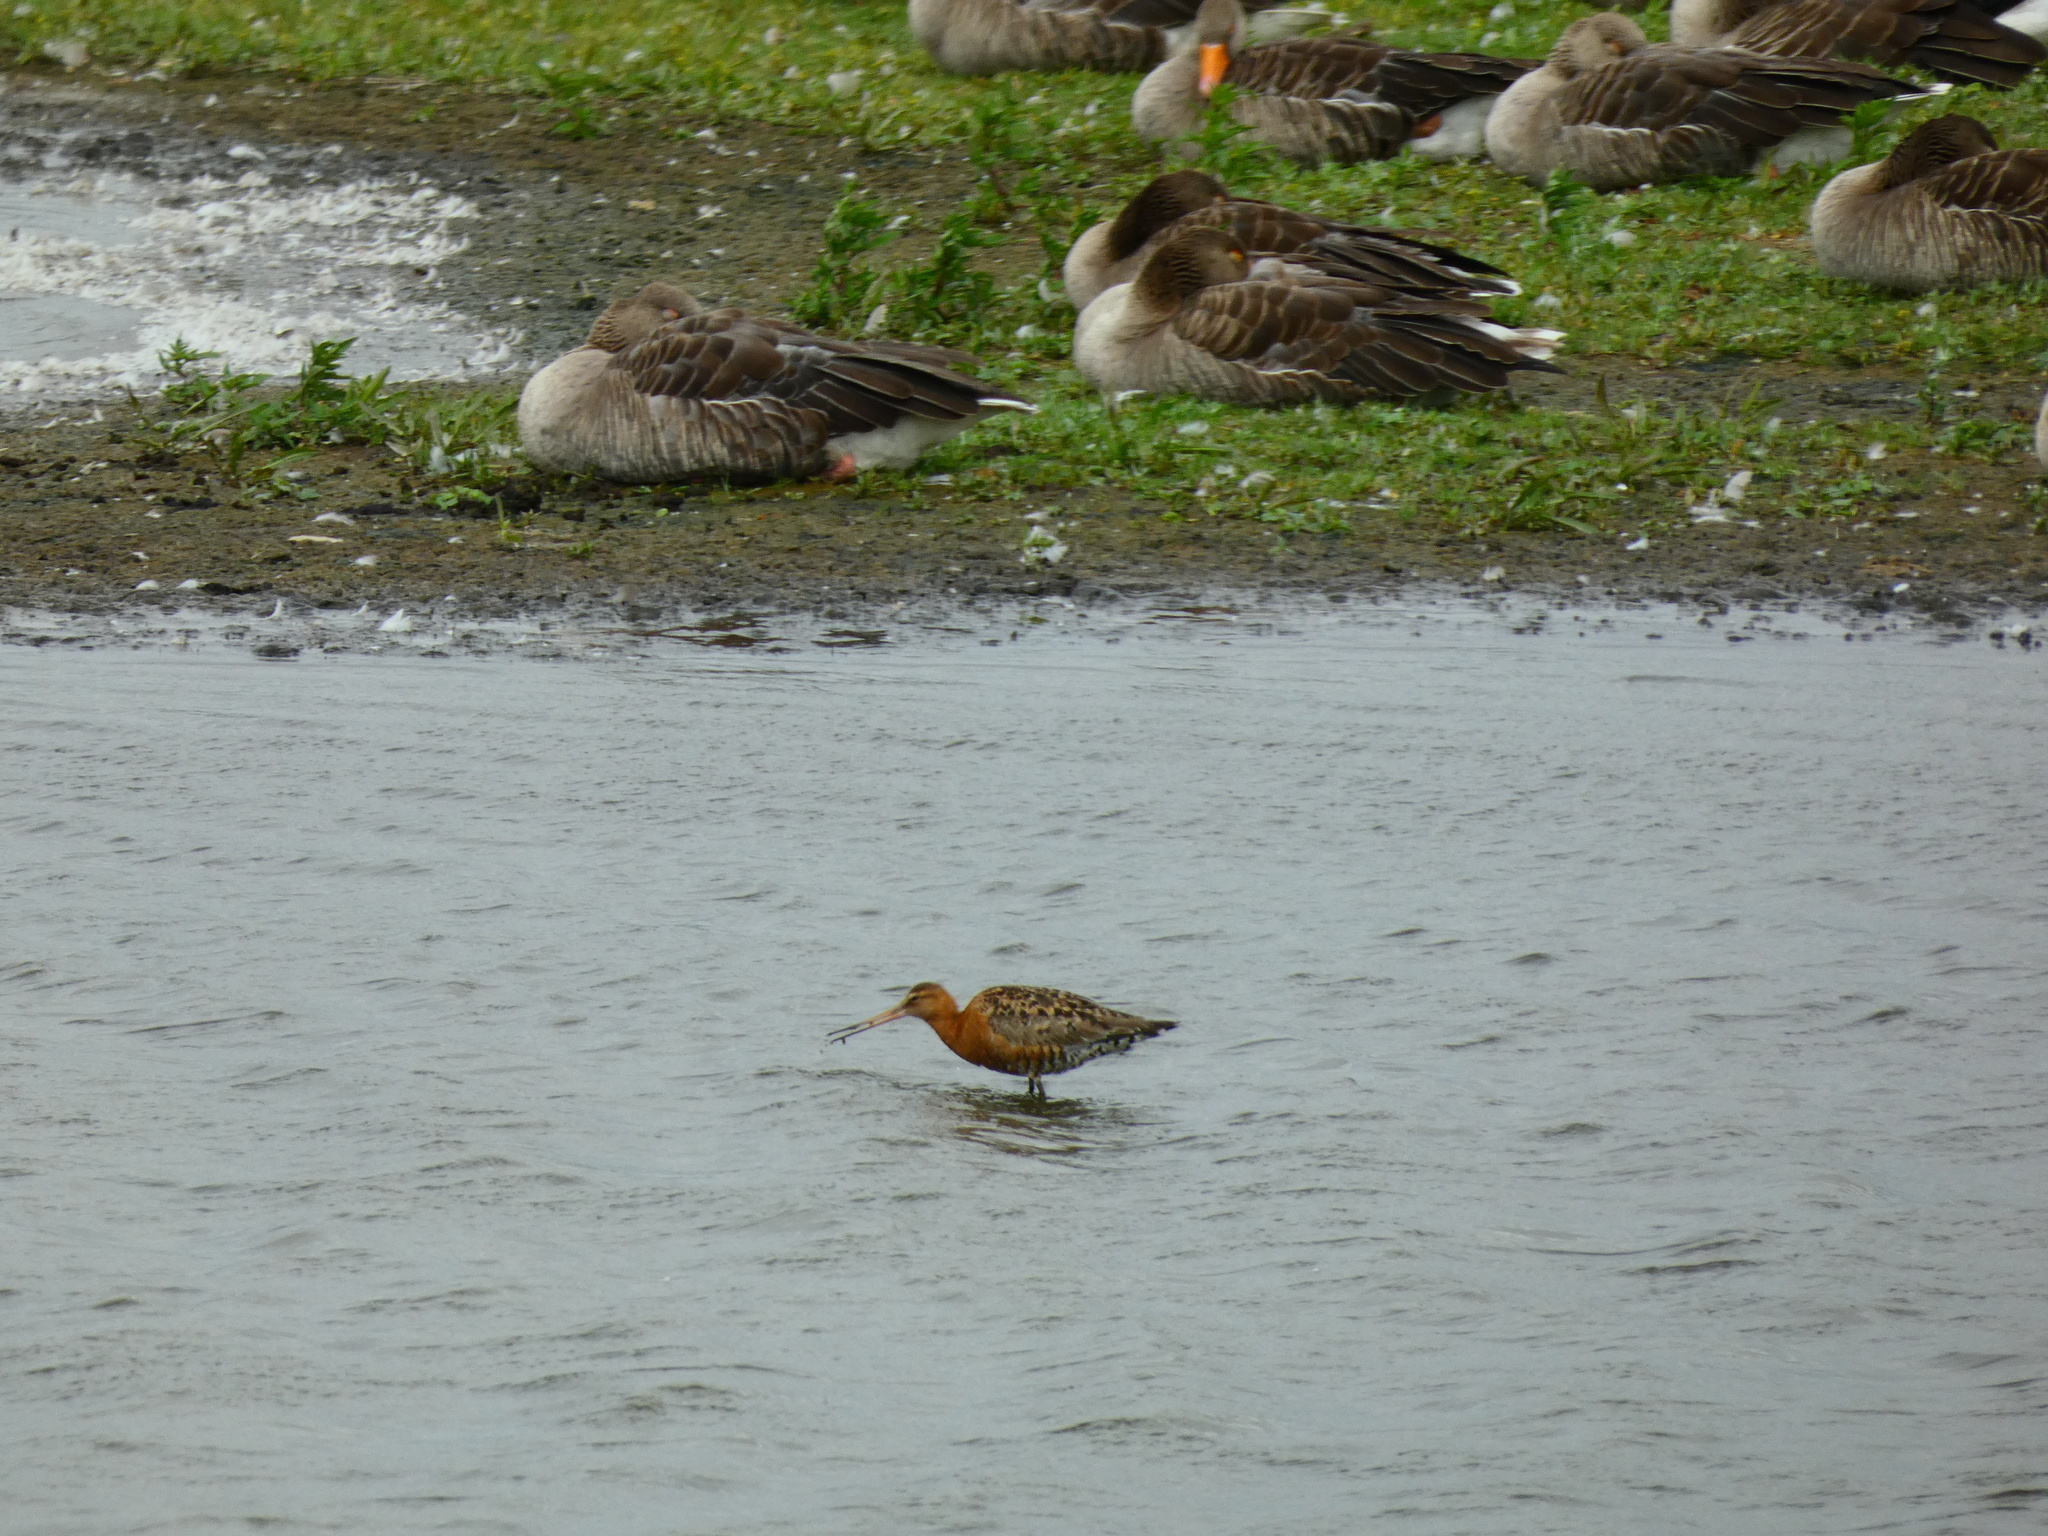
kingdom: Animalia
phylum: Chordata
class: Aves
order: Charadriiformes
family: Scolopacidae
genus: Limosa
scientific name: Limosa limosa
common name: Black-tailed godwit
